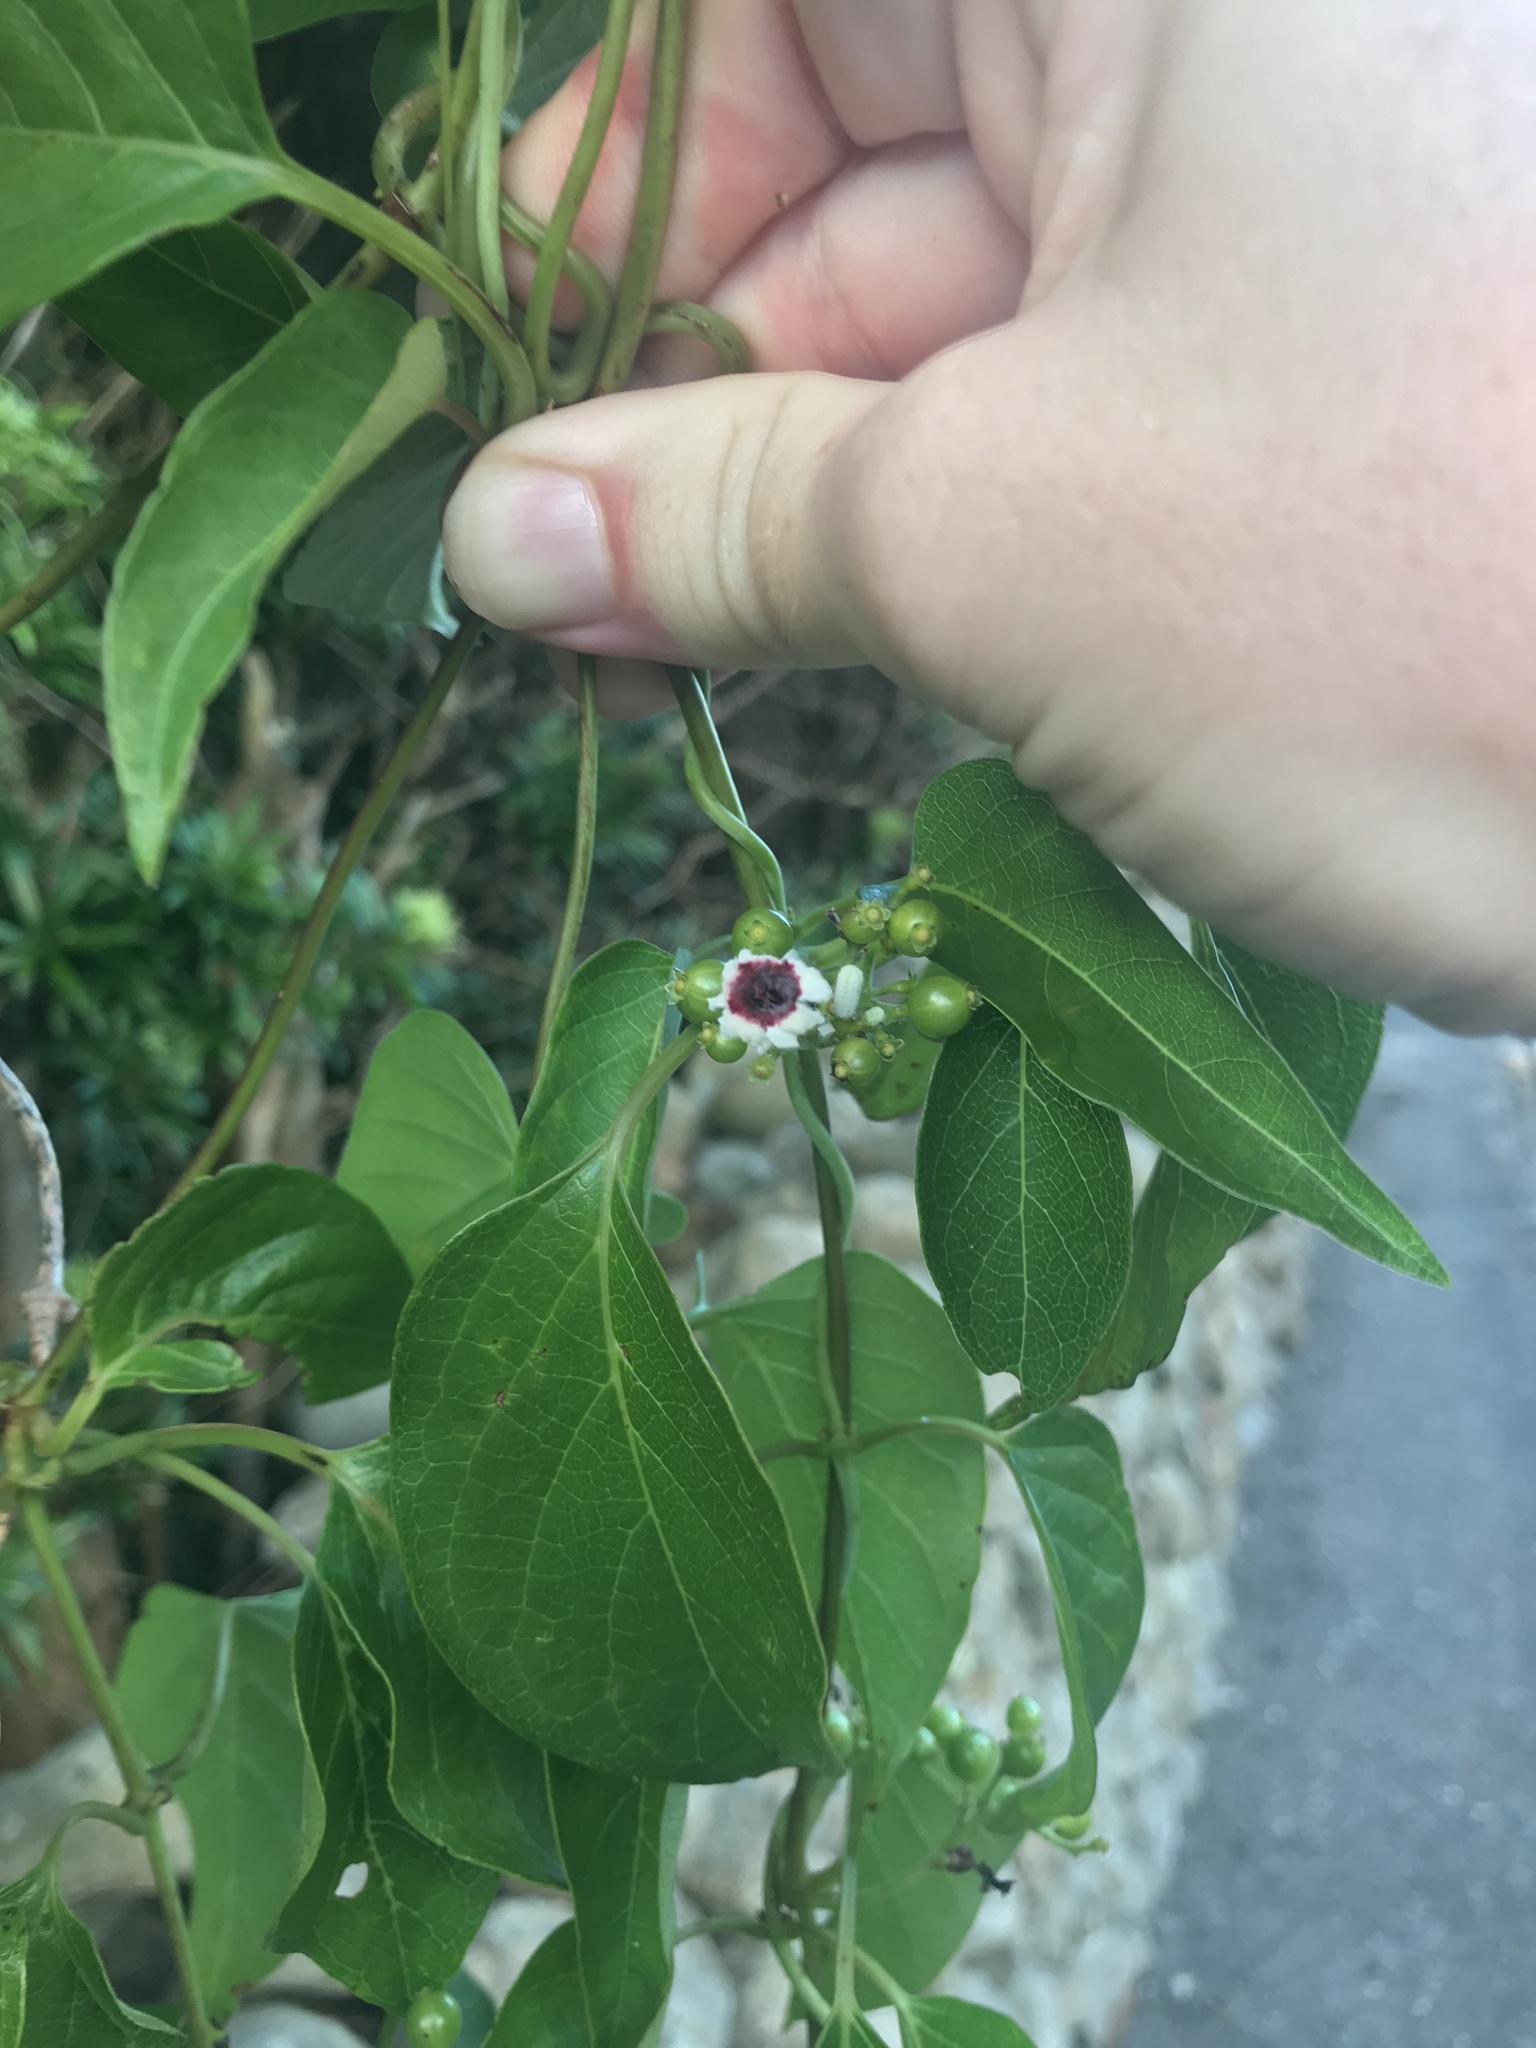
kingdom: Plantae
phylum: Tracheophyta
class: Magnoliopsida
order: Gentianales
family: Rubiaceae
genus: Paederia
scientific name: Paederia foetida
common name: Stinkvine
